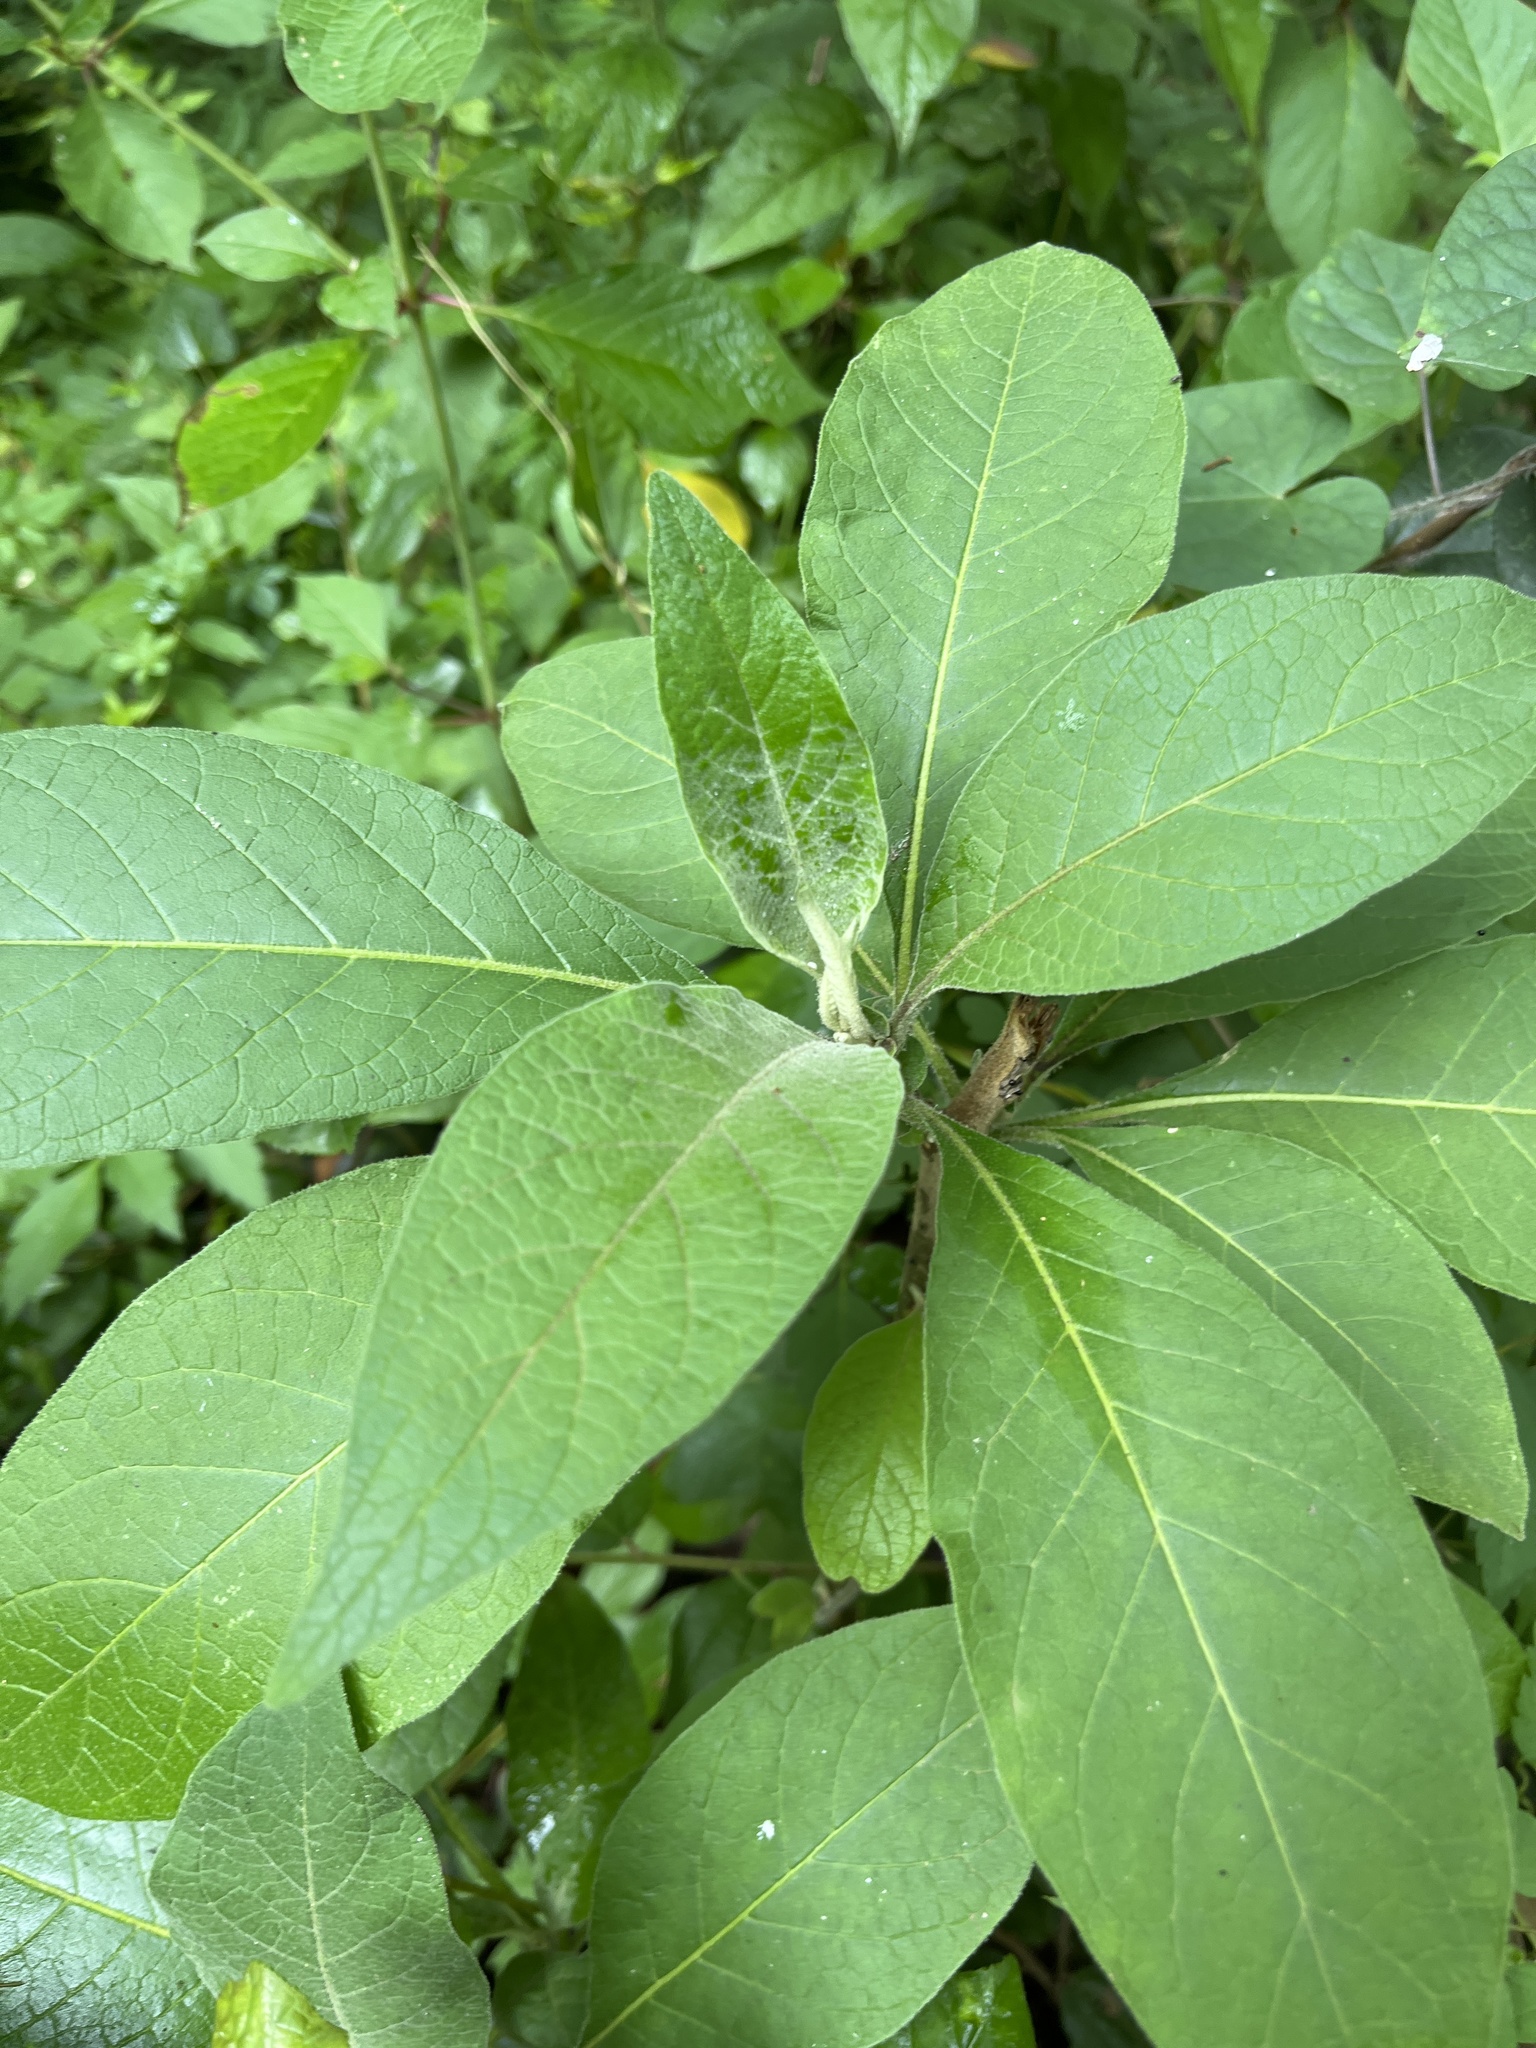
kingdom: Plantae
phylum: Tracheophyta
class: Magnoliopsida
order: Solanales
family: Solanaceae
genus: Solanum
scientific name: Solanum mauritianum
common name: Earleaf nightshade
